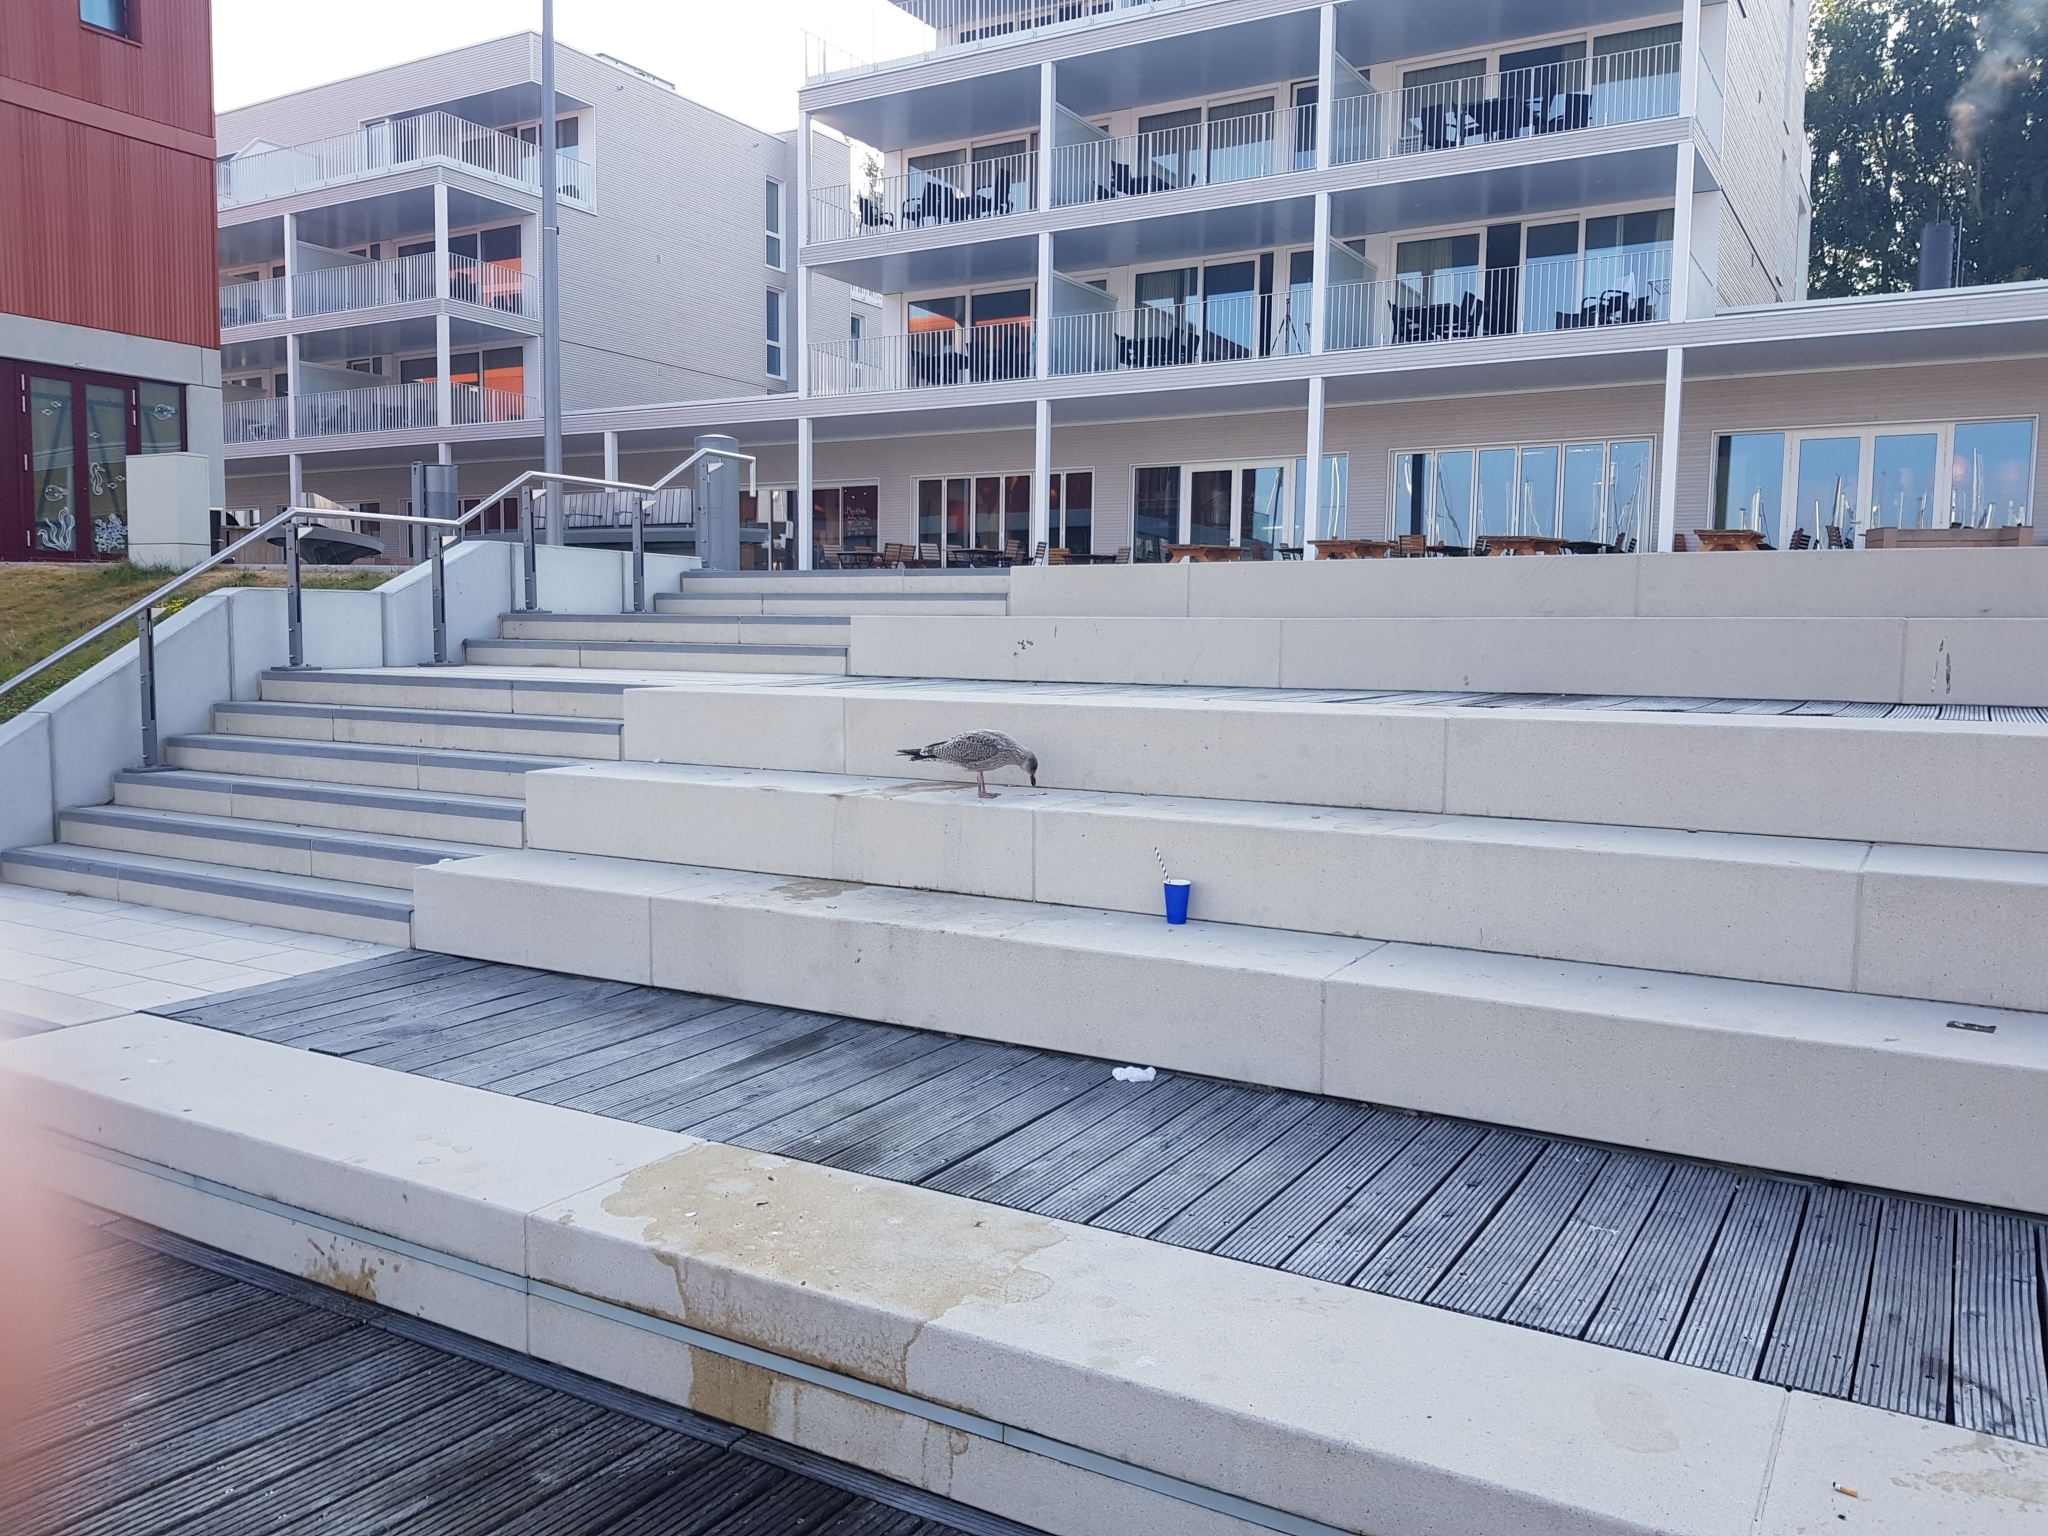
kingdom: Animalia
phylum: Chordata
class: Aves
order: Charadriiformes
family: Laridae
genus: Larus
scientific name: Larus argentatus
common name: Herring gull
